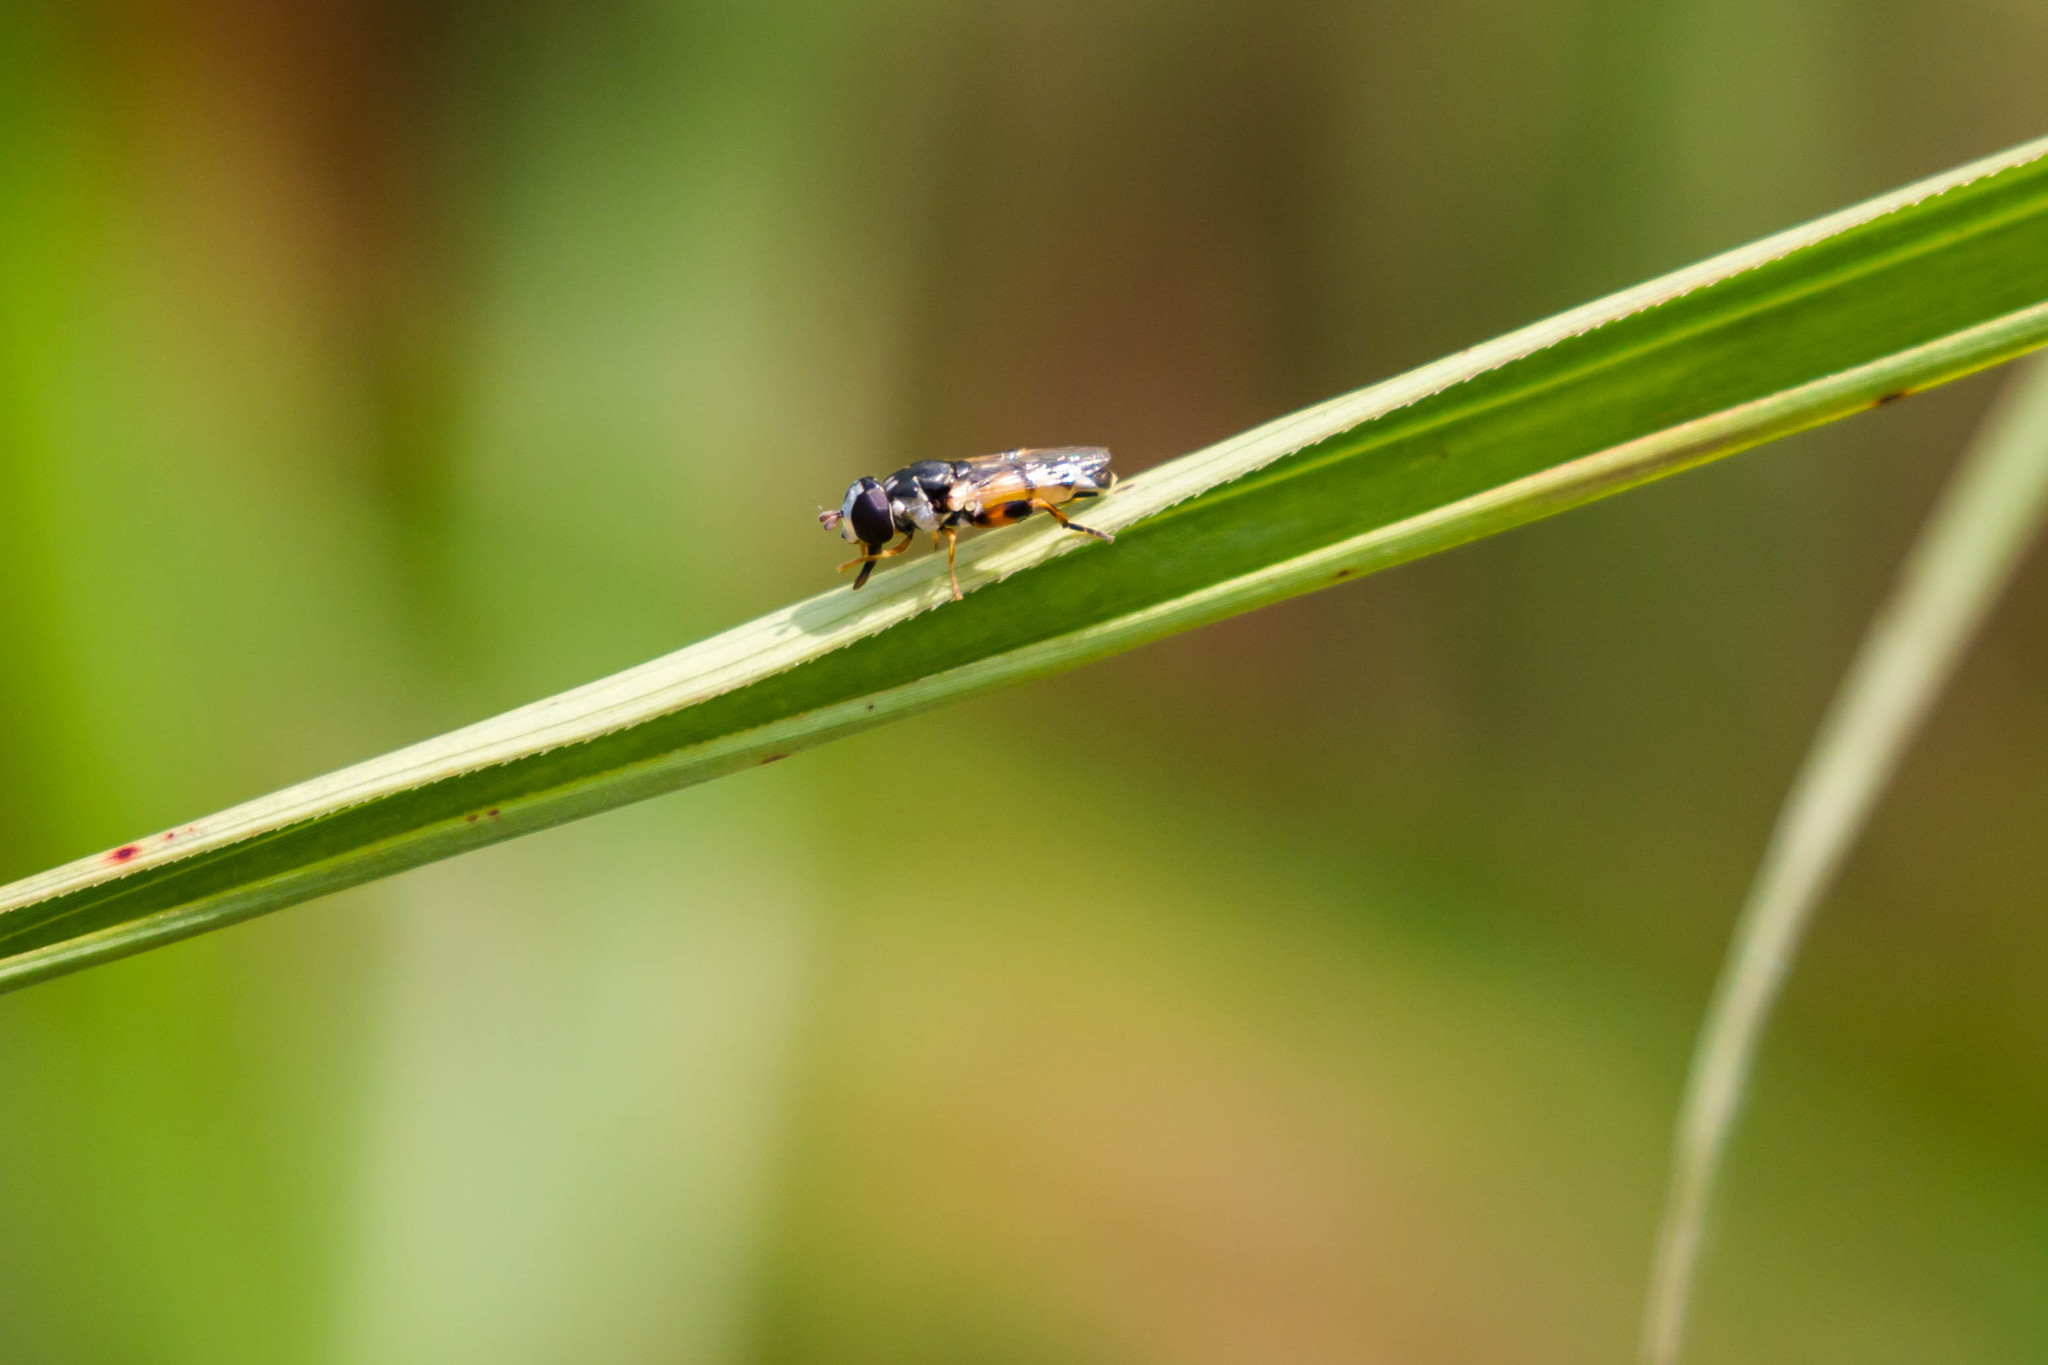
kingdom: Animalia
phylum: Arthropoda
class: Insecta
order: Diptera
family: Syrphidae
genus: Syritta
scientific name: Syritta flaviventris
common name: Syrphid fly
